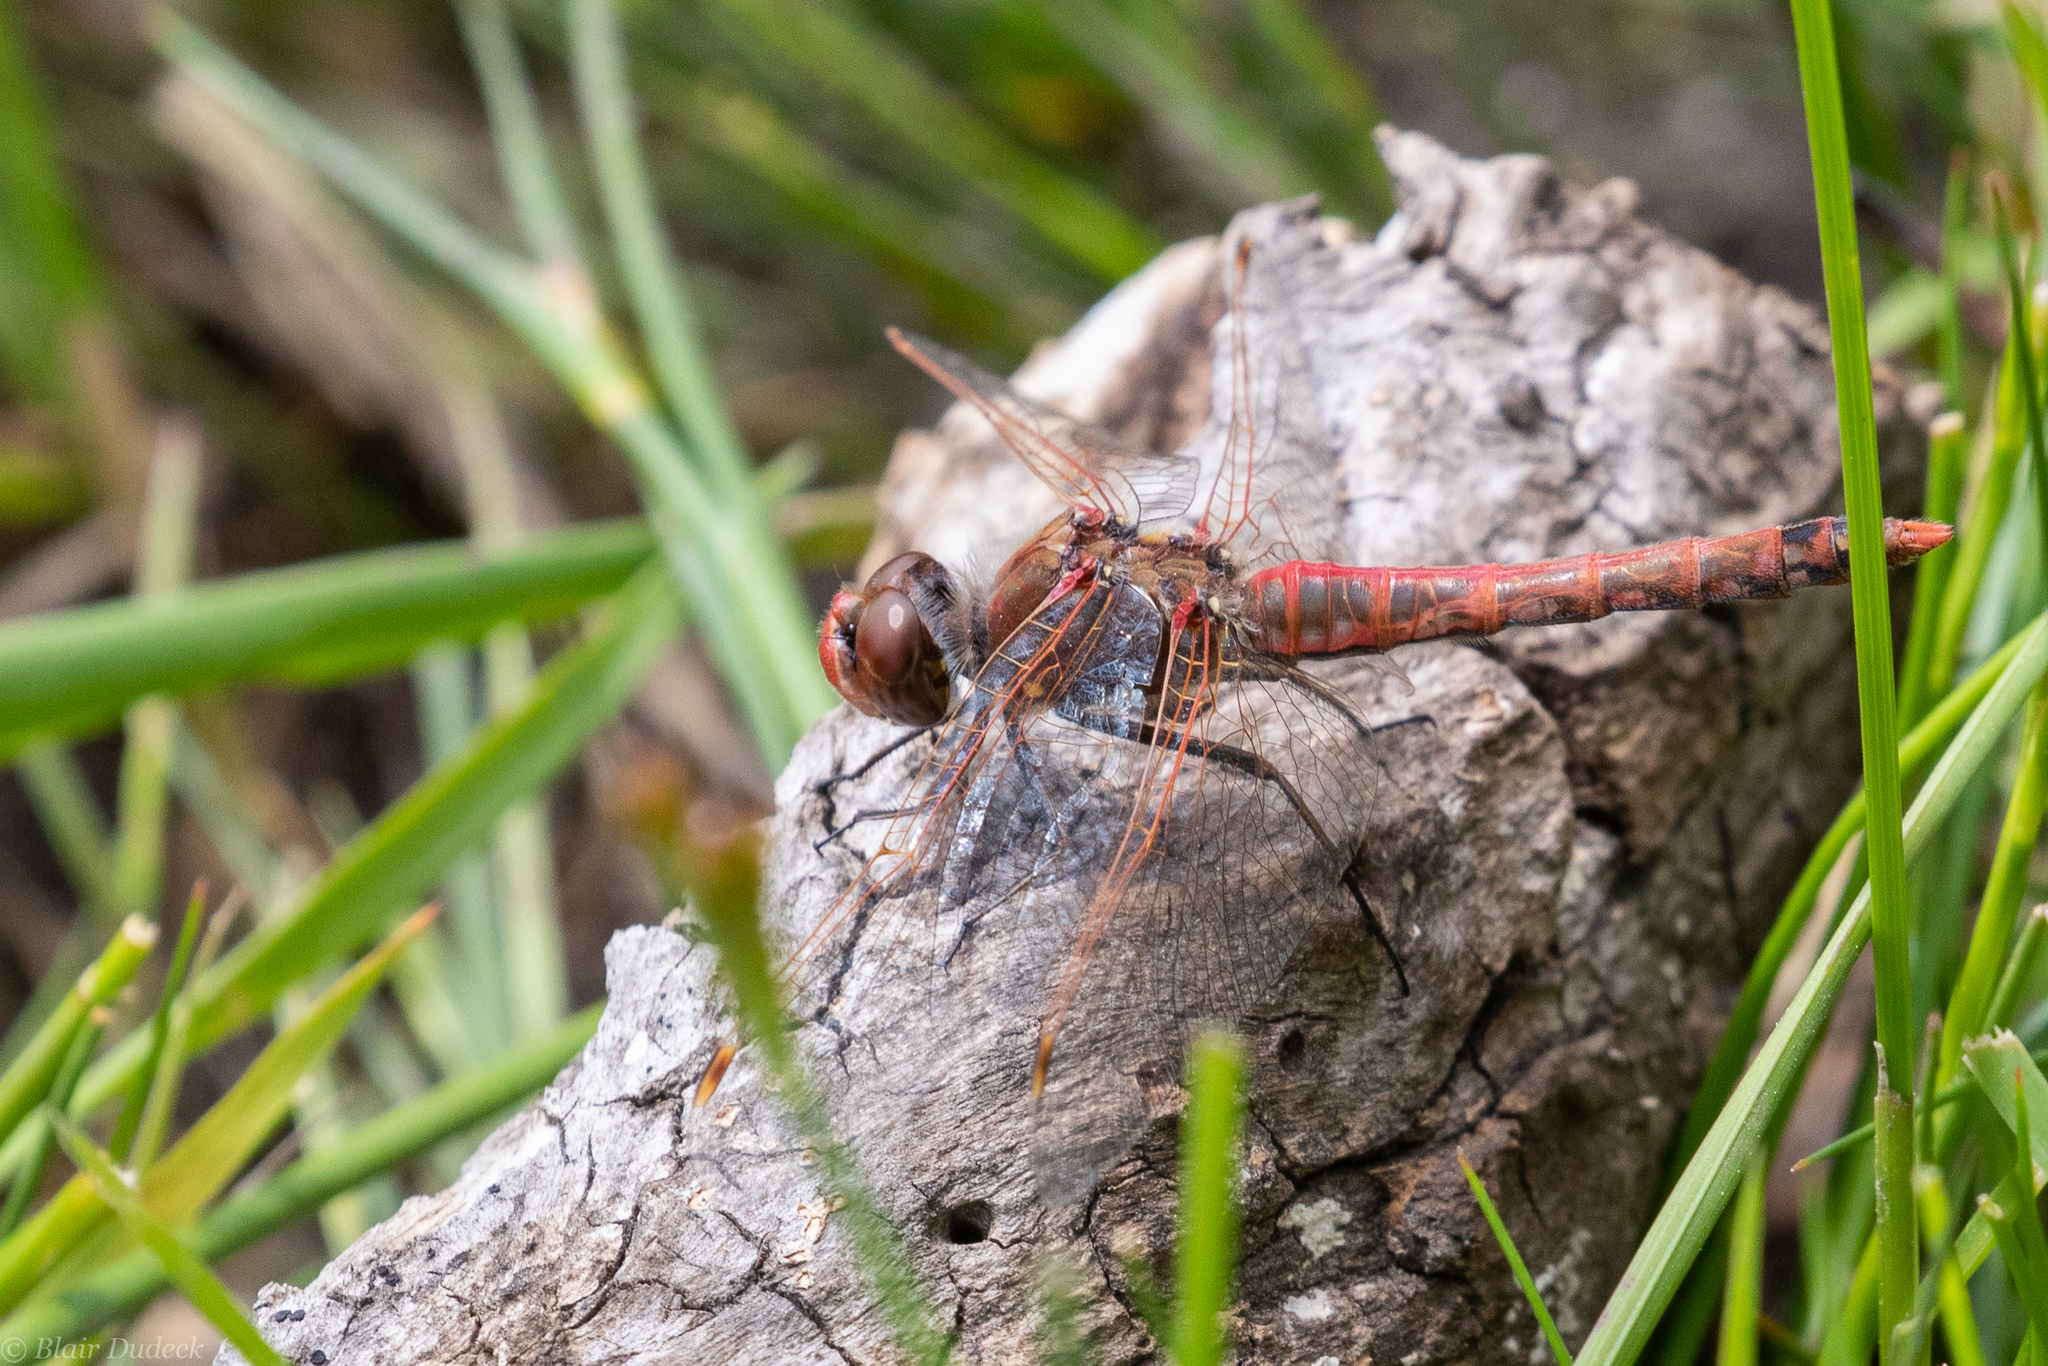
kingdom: Animalia
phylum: Arthropoda
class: Insecta
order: Odonata
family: Libellulidae
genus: Sympetrum
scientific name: Sympetrum corruptum
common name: Variegated meadowhawk
